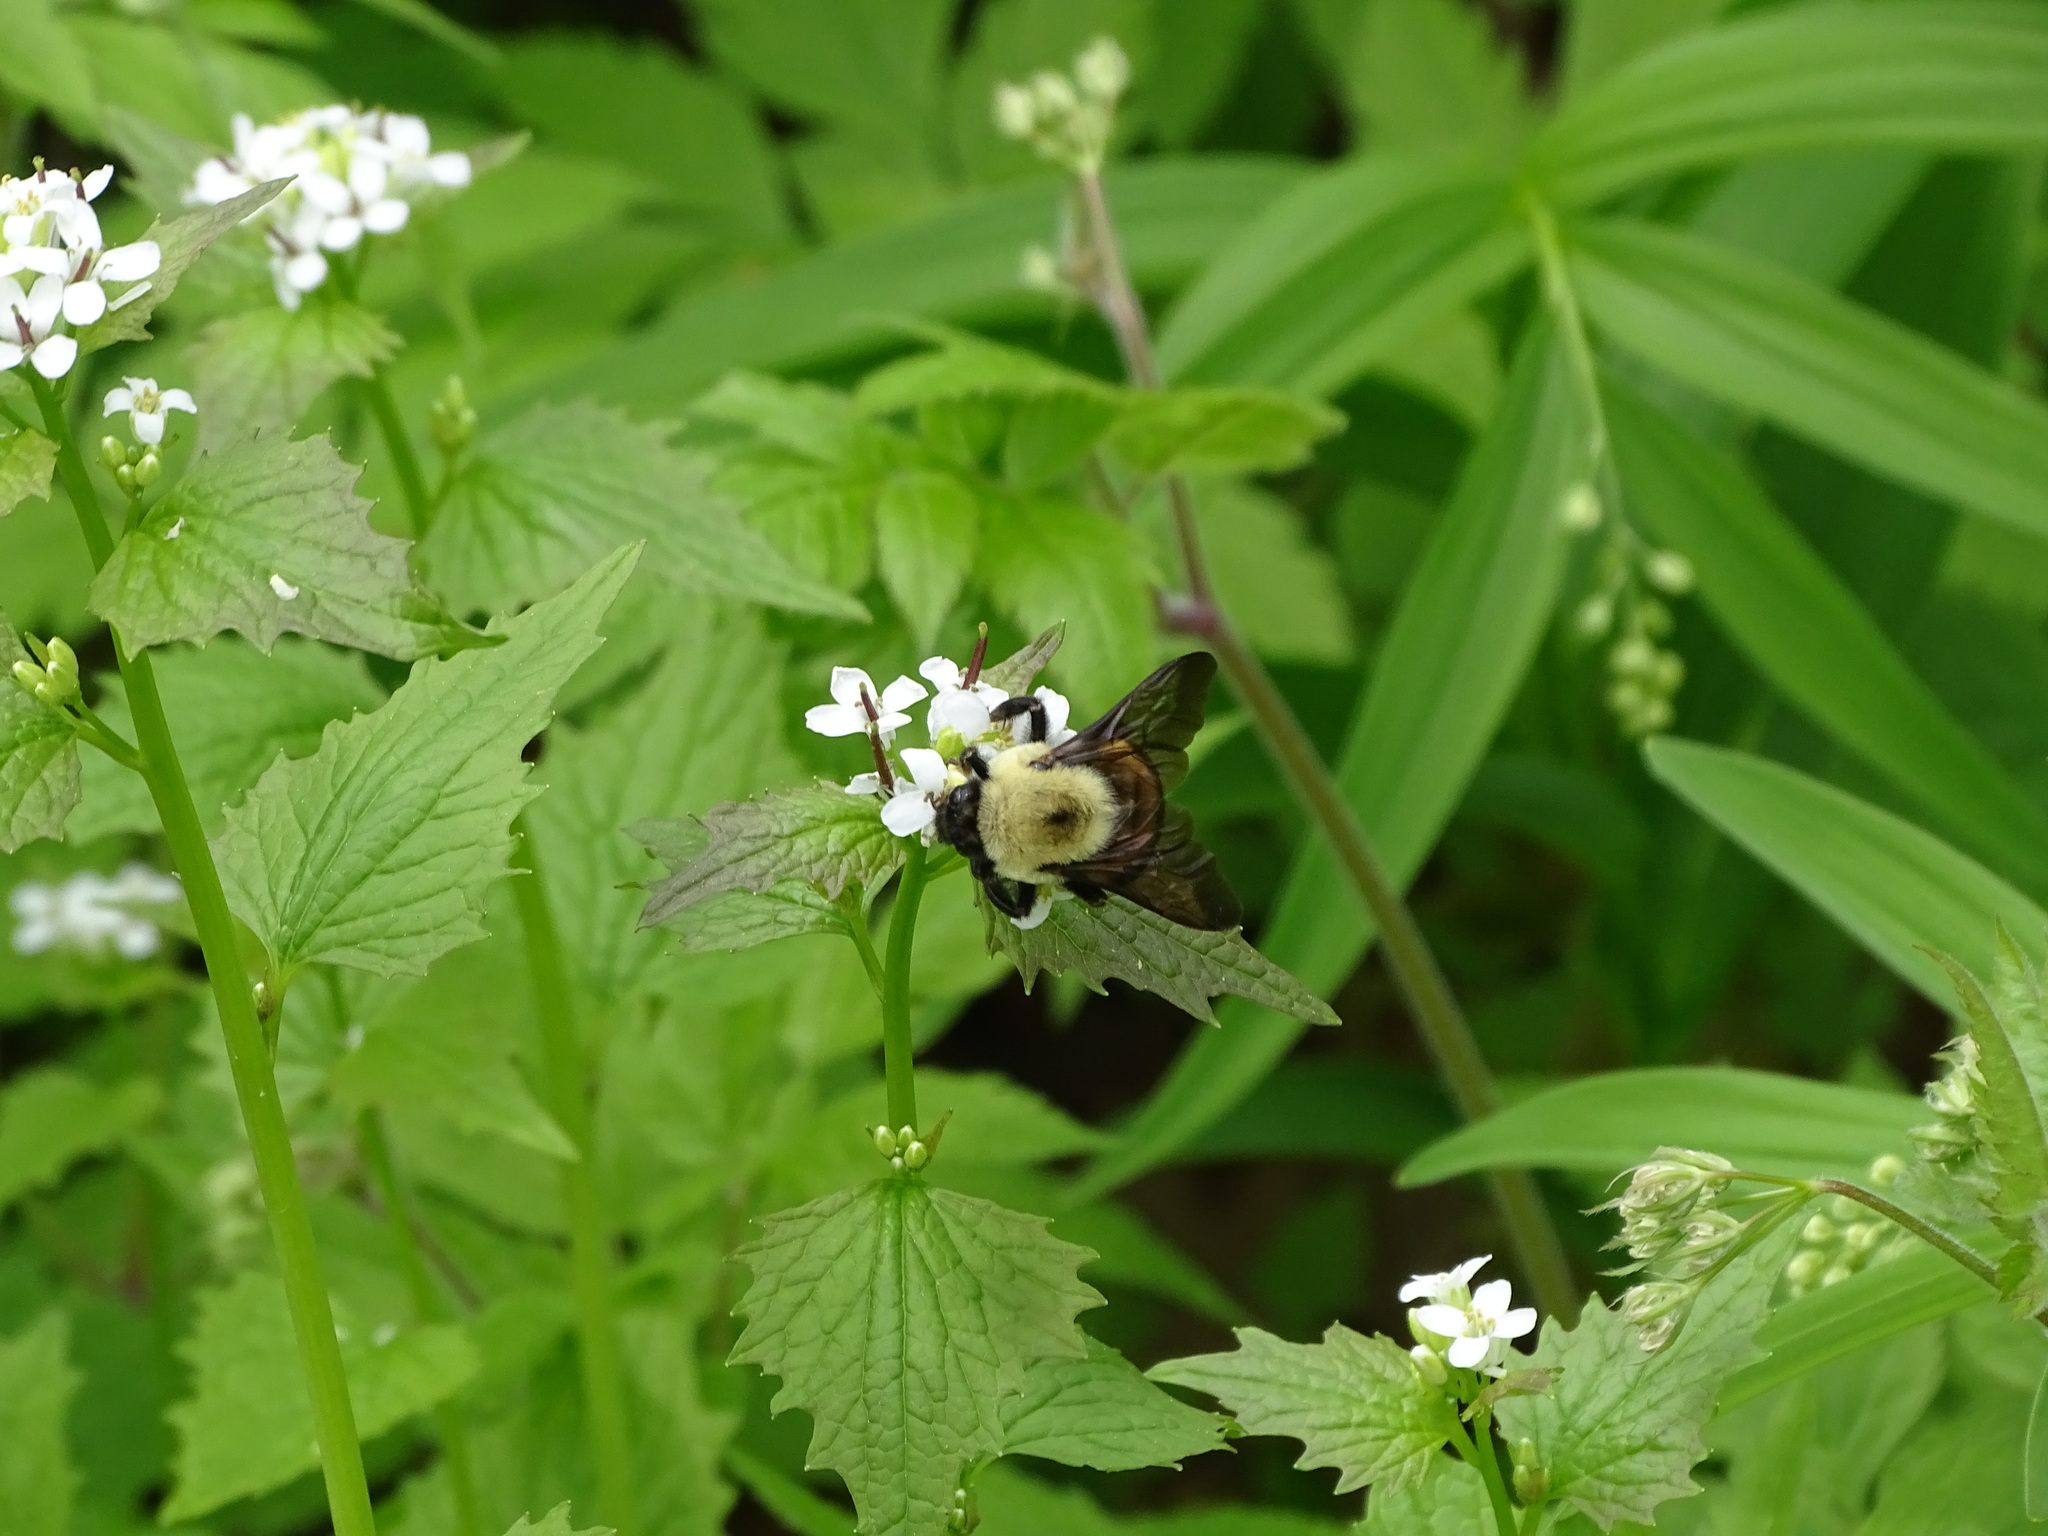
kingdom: Animalia
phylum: Arthropoda
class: Insecta
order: Hymenoptera
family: Apidae
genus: Bombus
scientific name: Bombus griseocollis
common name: Brown-belted bumble bee
